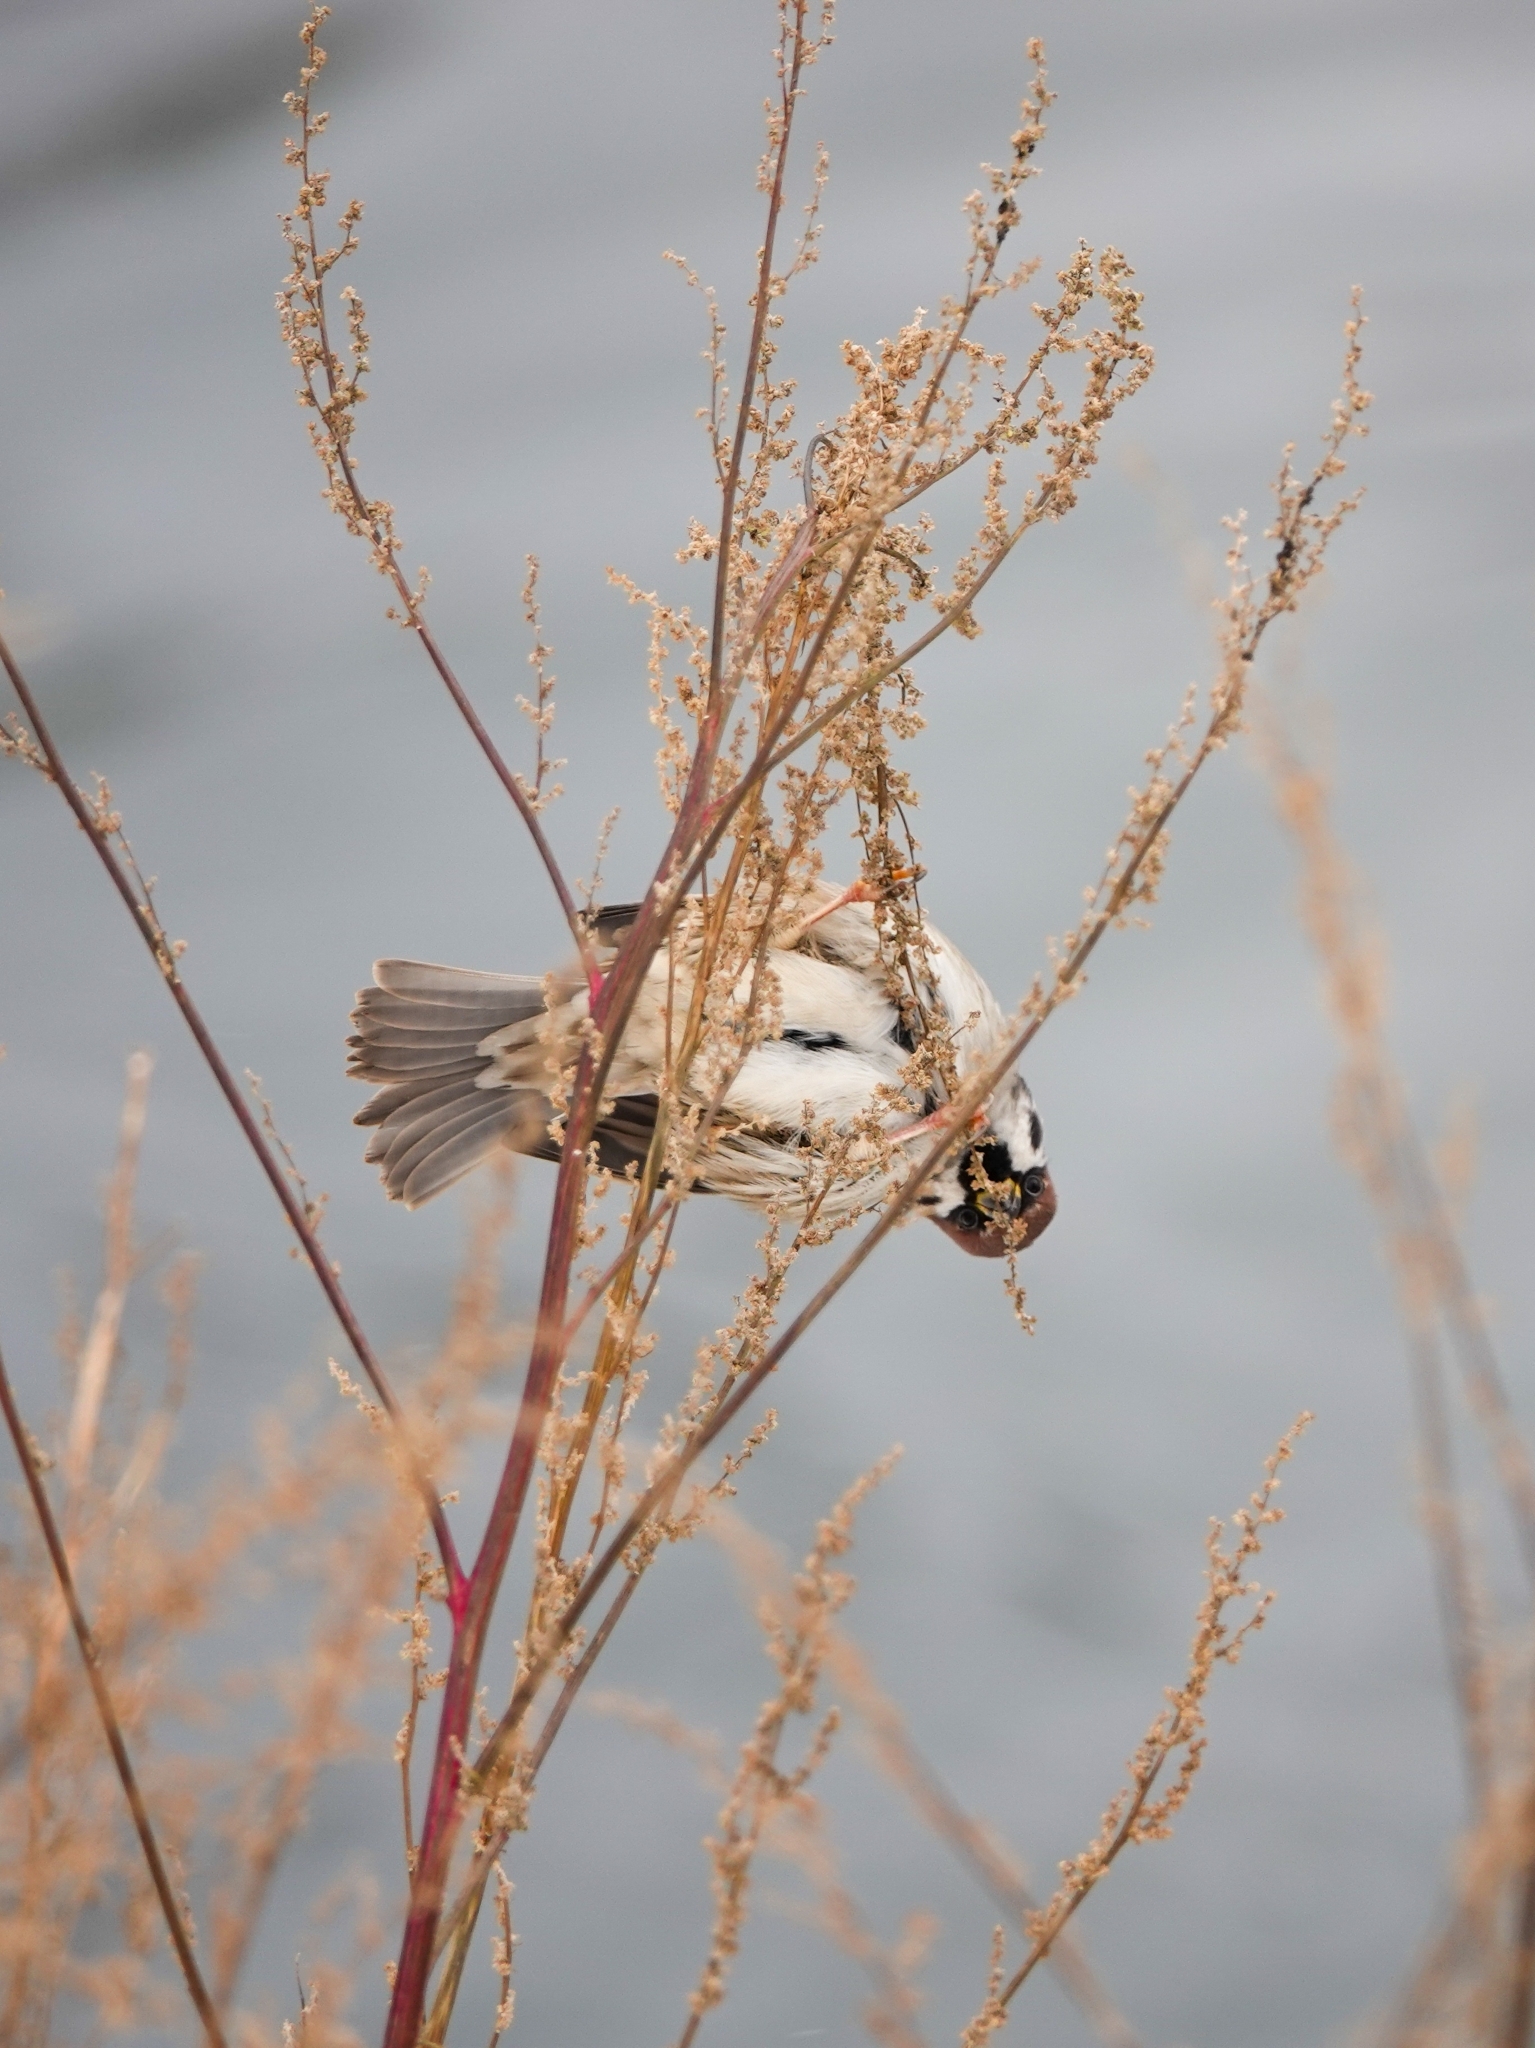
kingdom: Animalia
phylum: Chordata
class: Aves
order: Passeriformes
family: Passeridae
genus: Passer
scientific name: Passer montanus
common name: Eurasian tree sparrow
